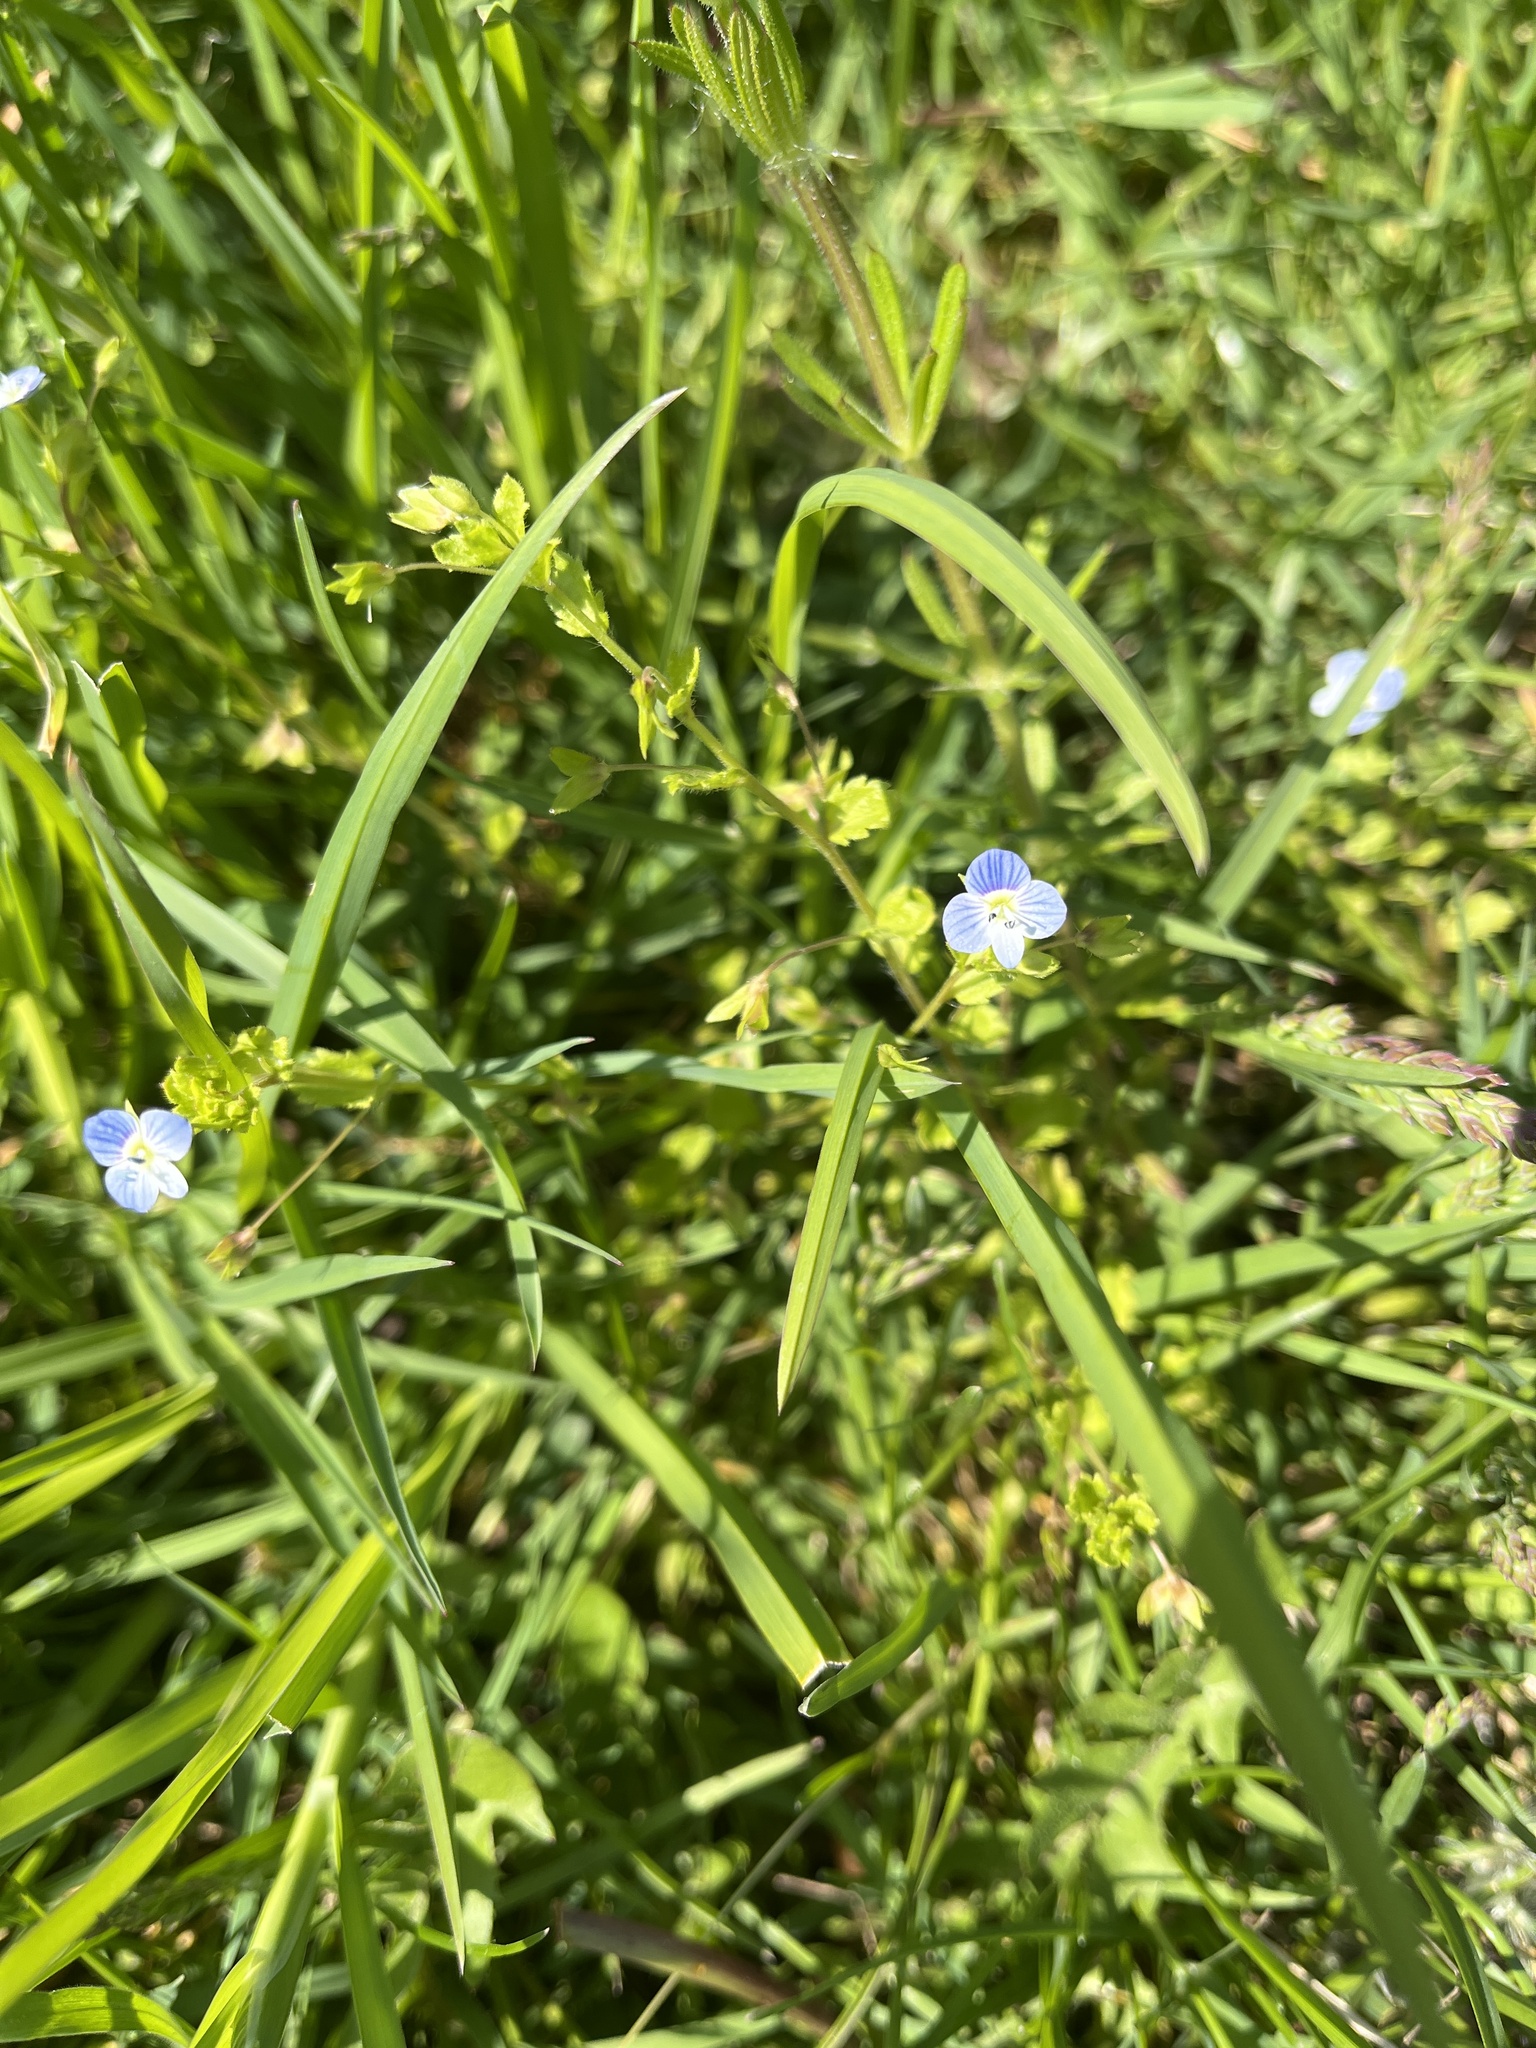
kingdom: Plantae
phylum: Tracheophyta
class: Magnoliopsida
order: Lamiales
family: Plantaginaceae
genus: Veronica
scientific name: Veronica persica
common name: Common field-speedwell
